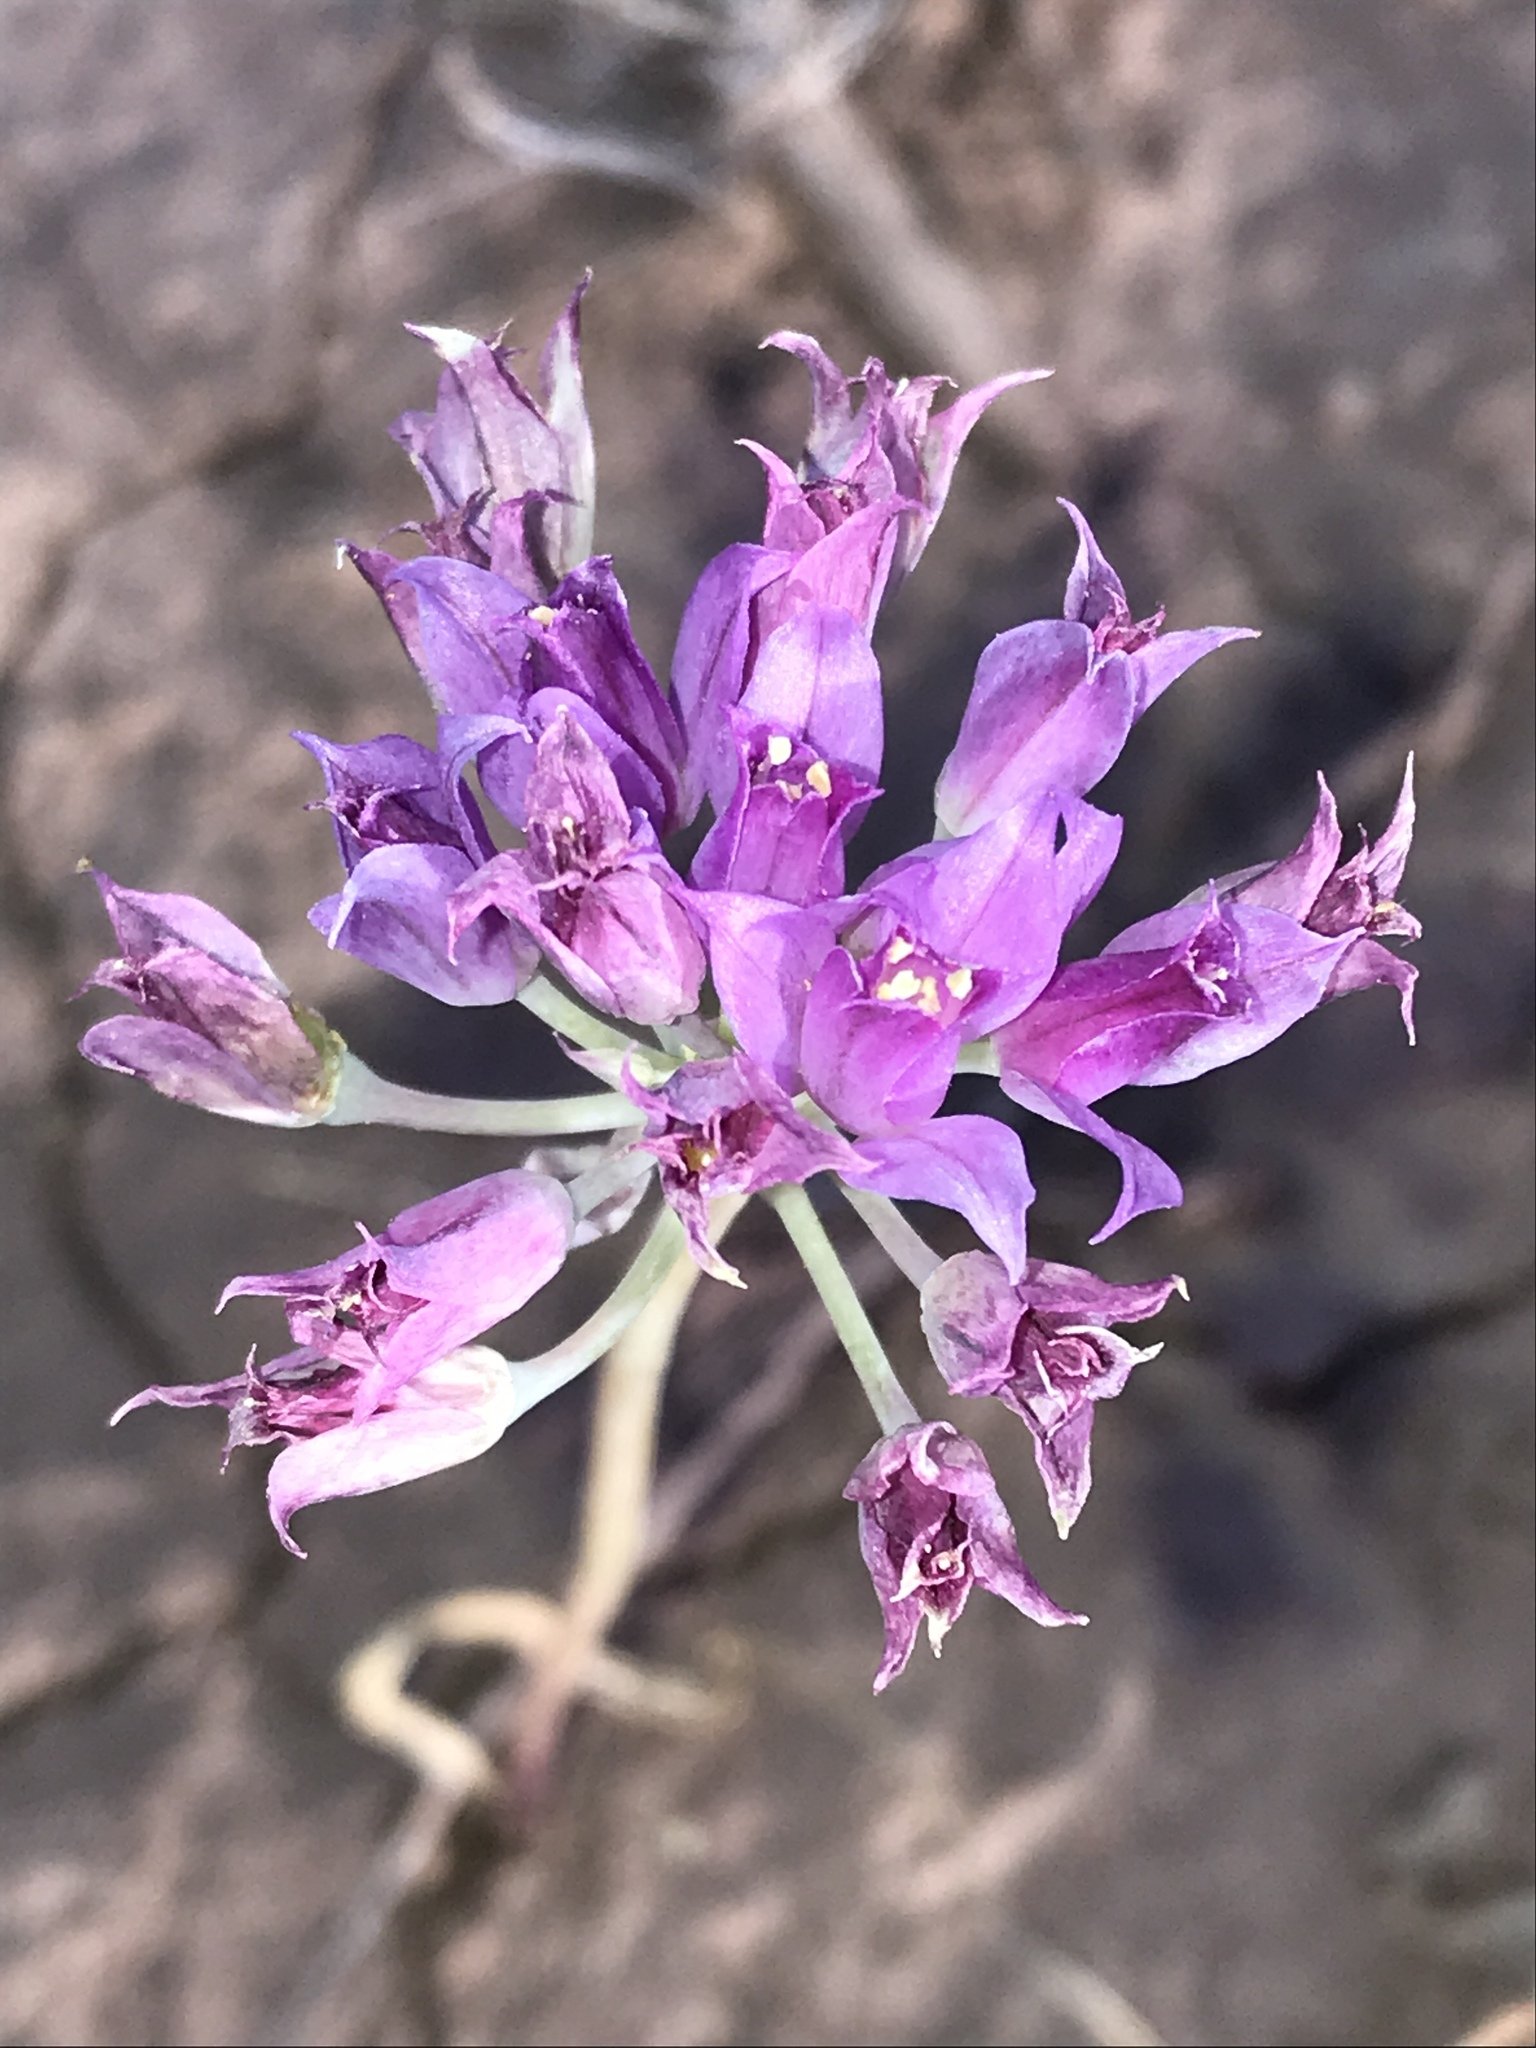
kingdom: Plantae
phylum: Tracheophyta
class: Liliopsida
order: Asparagales
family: Amaryllidaceae
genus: Allium
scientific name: Allium acuminatum
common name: Hooker's onion
